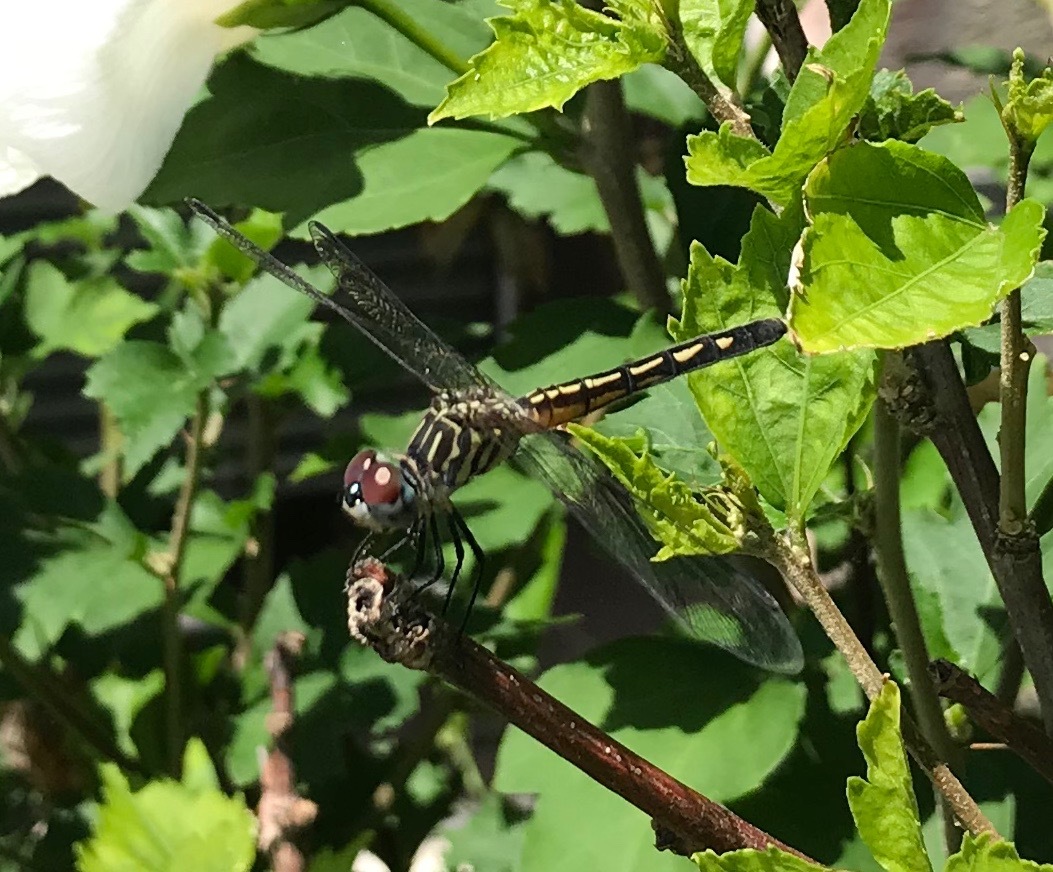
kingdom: Animalia
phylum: Arthropoda
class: Insecta
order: Odonata
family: Libellulidae
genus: Pachydiplax
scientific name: Pachydiplax longipennis
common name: Blue dasher
